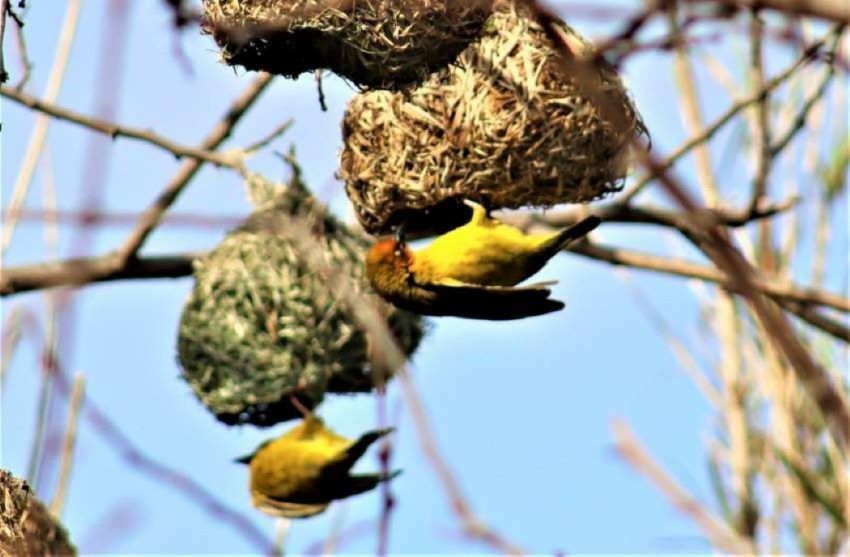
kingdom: Animalia
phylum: Chordata
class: Aves
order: Passeriformes
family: Ploceidae
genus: Ploceus
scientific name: Ploceus capensis
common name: Cape weaver
